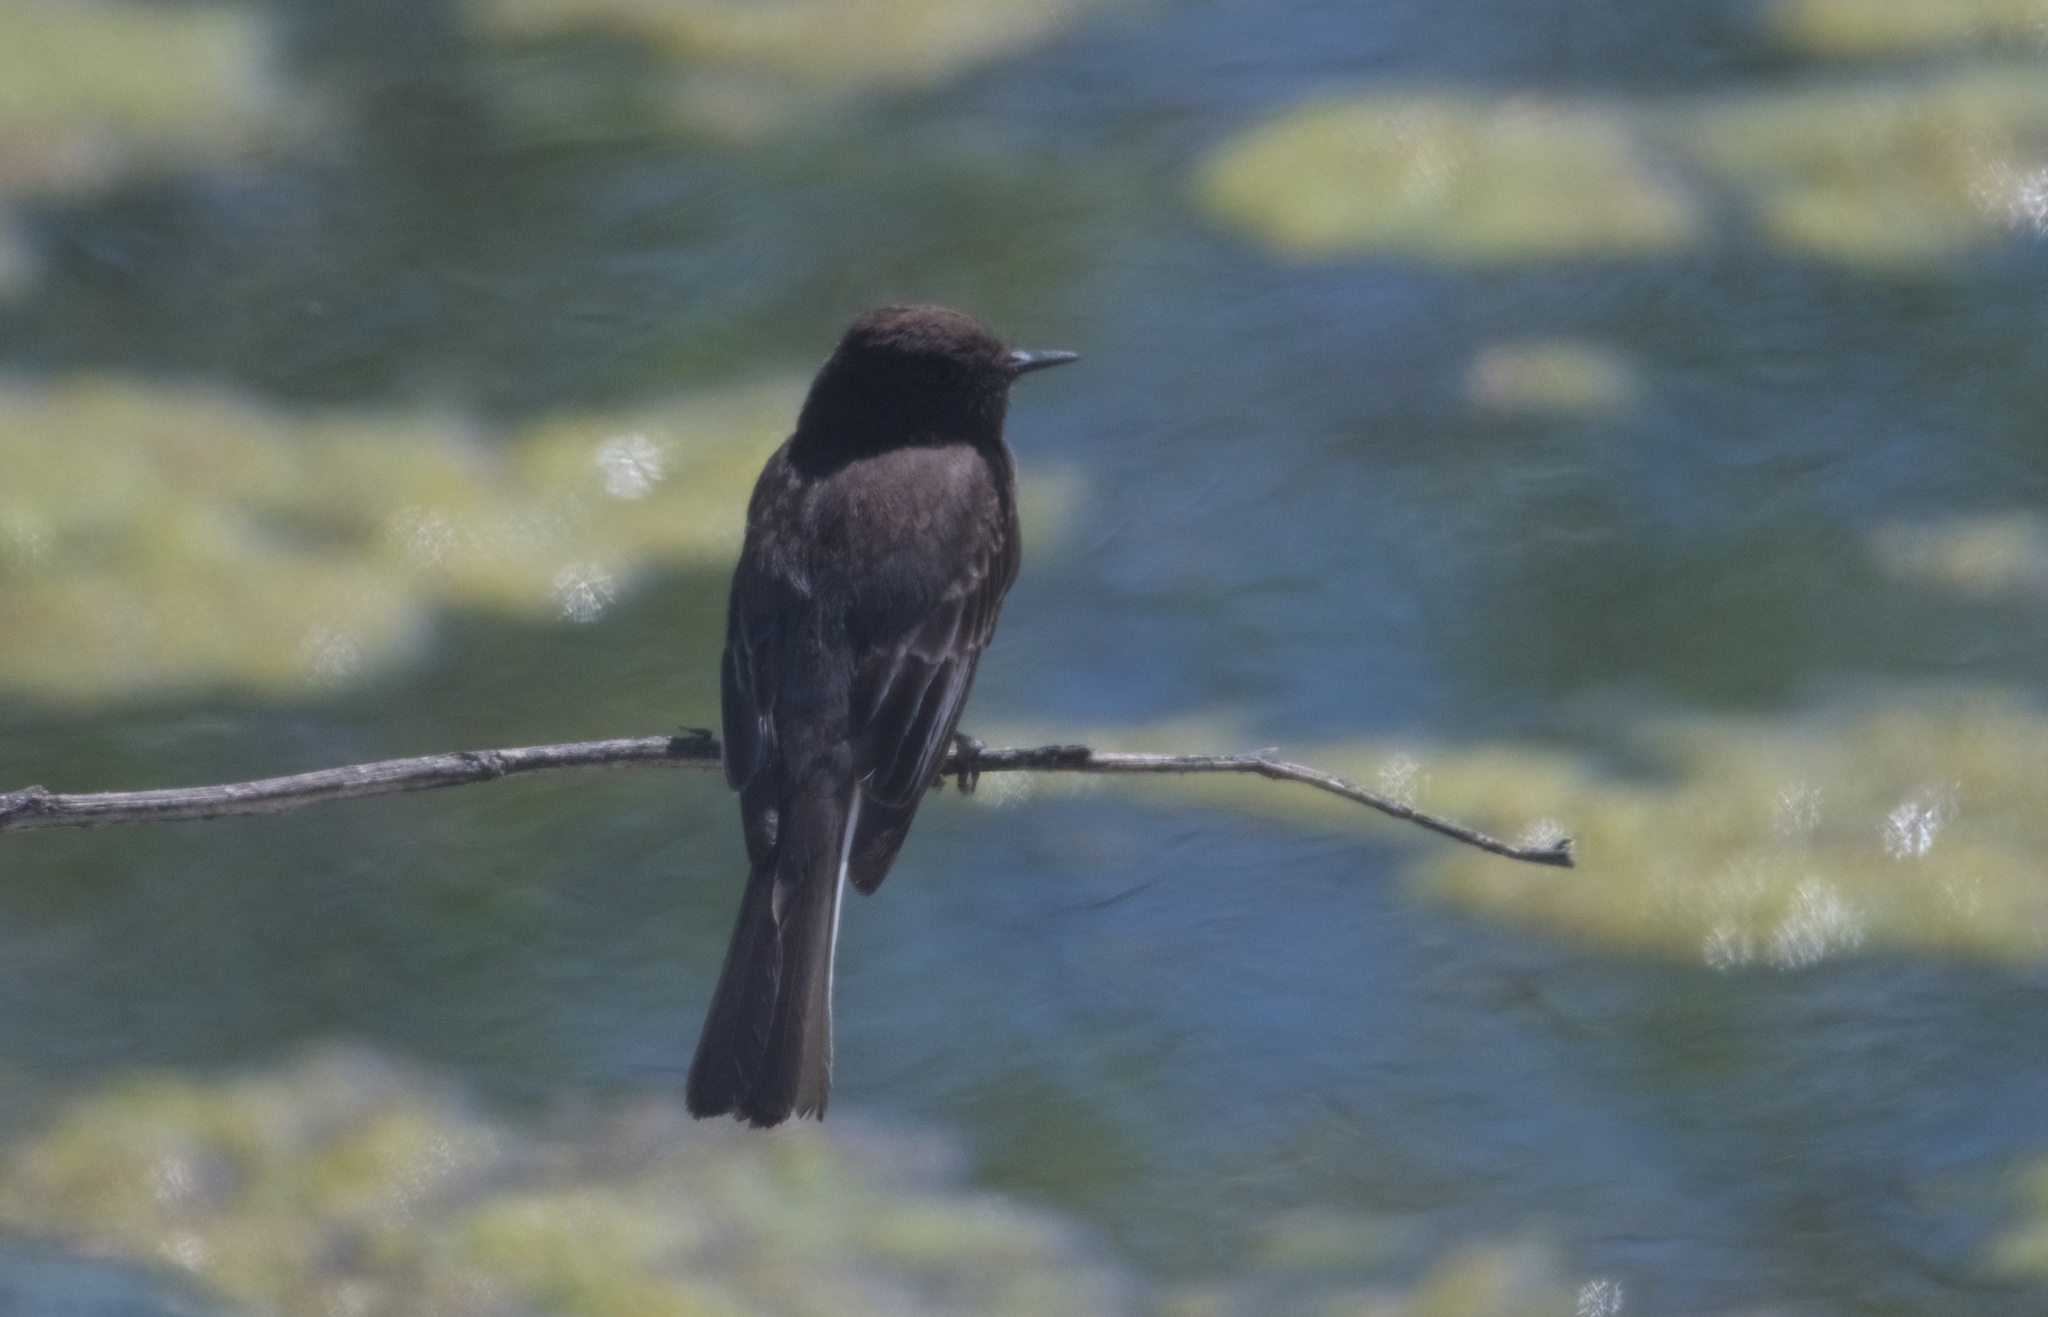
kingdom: Animalia
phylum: Chordata
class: Aves
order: Passeriformes
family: Tyrannidae
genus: Sayornis
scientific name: Sayornis nigricans
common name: Black phoebe
